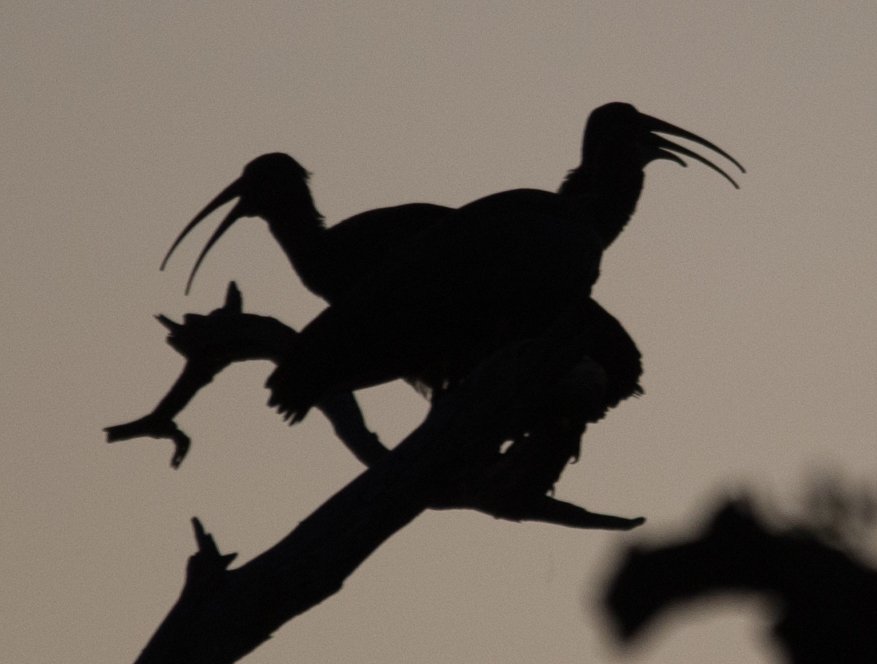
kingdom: Animalia
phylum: Chordata
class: Aves
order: Pelecaniformes
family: Threskiornithidae
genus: Bostrychia
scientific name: Bostrychia hagedash
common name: Hadada ibis
